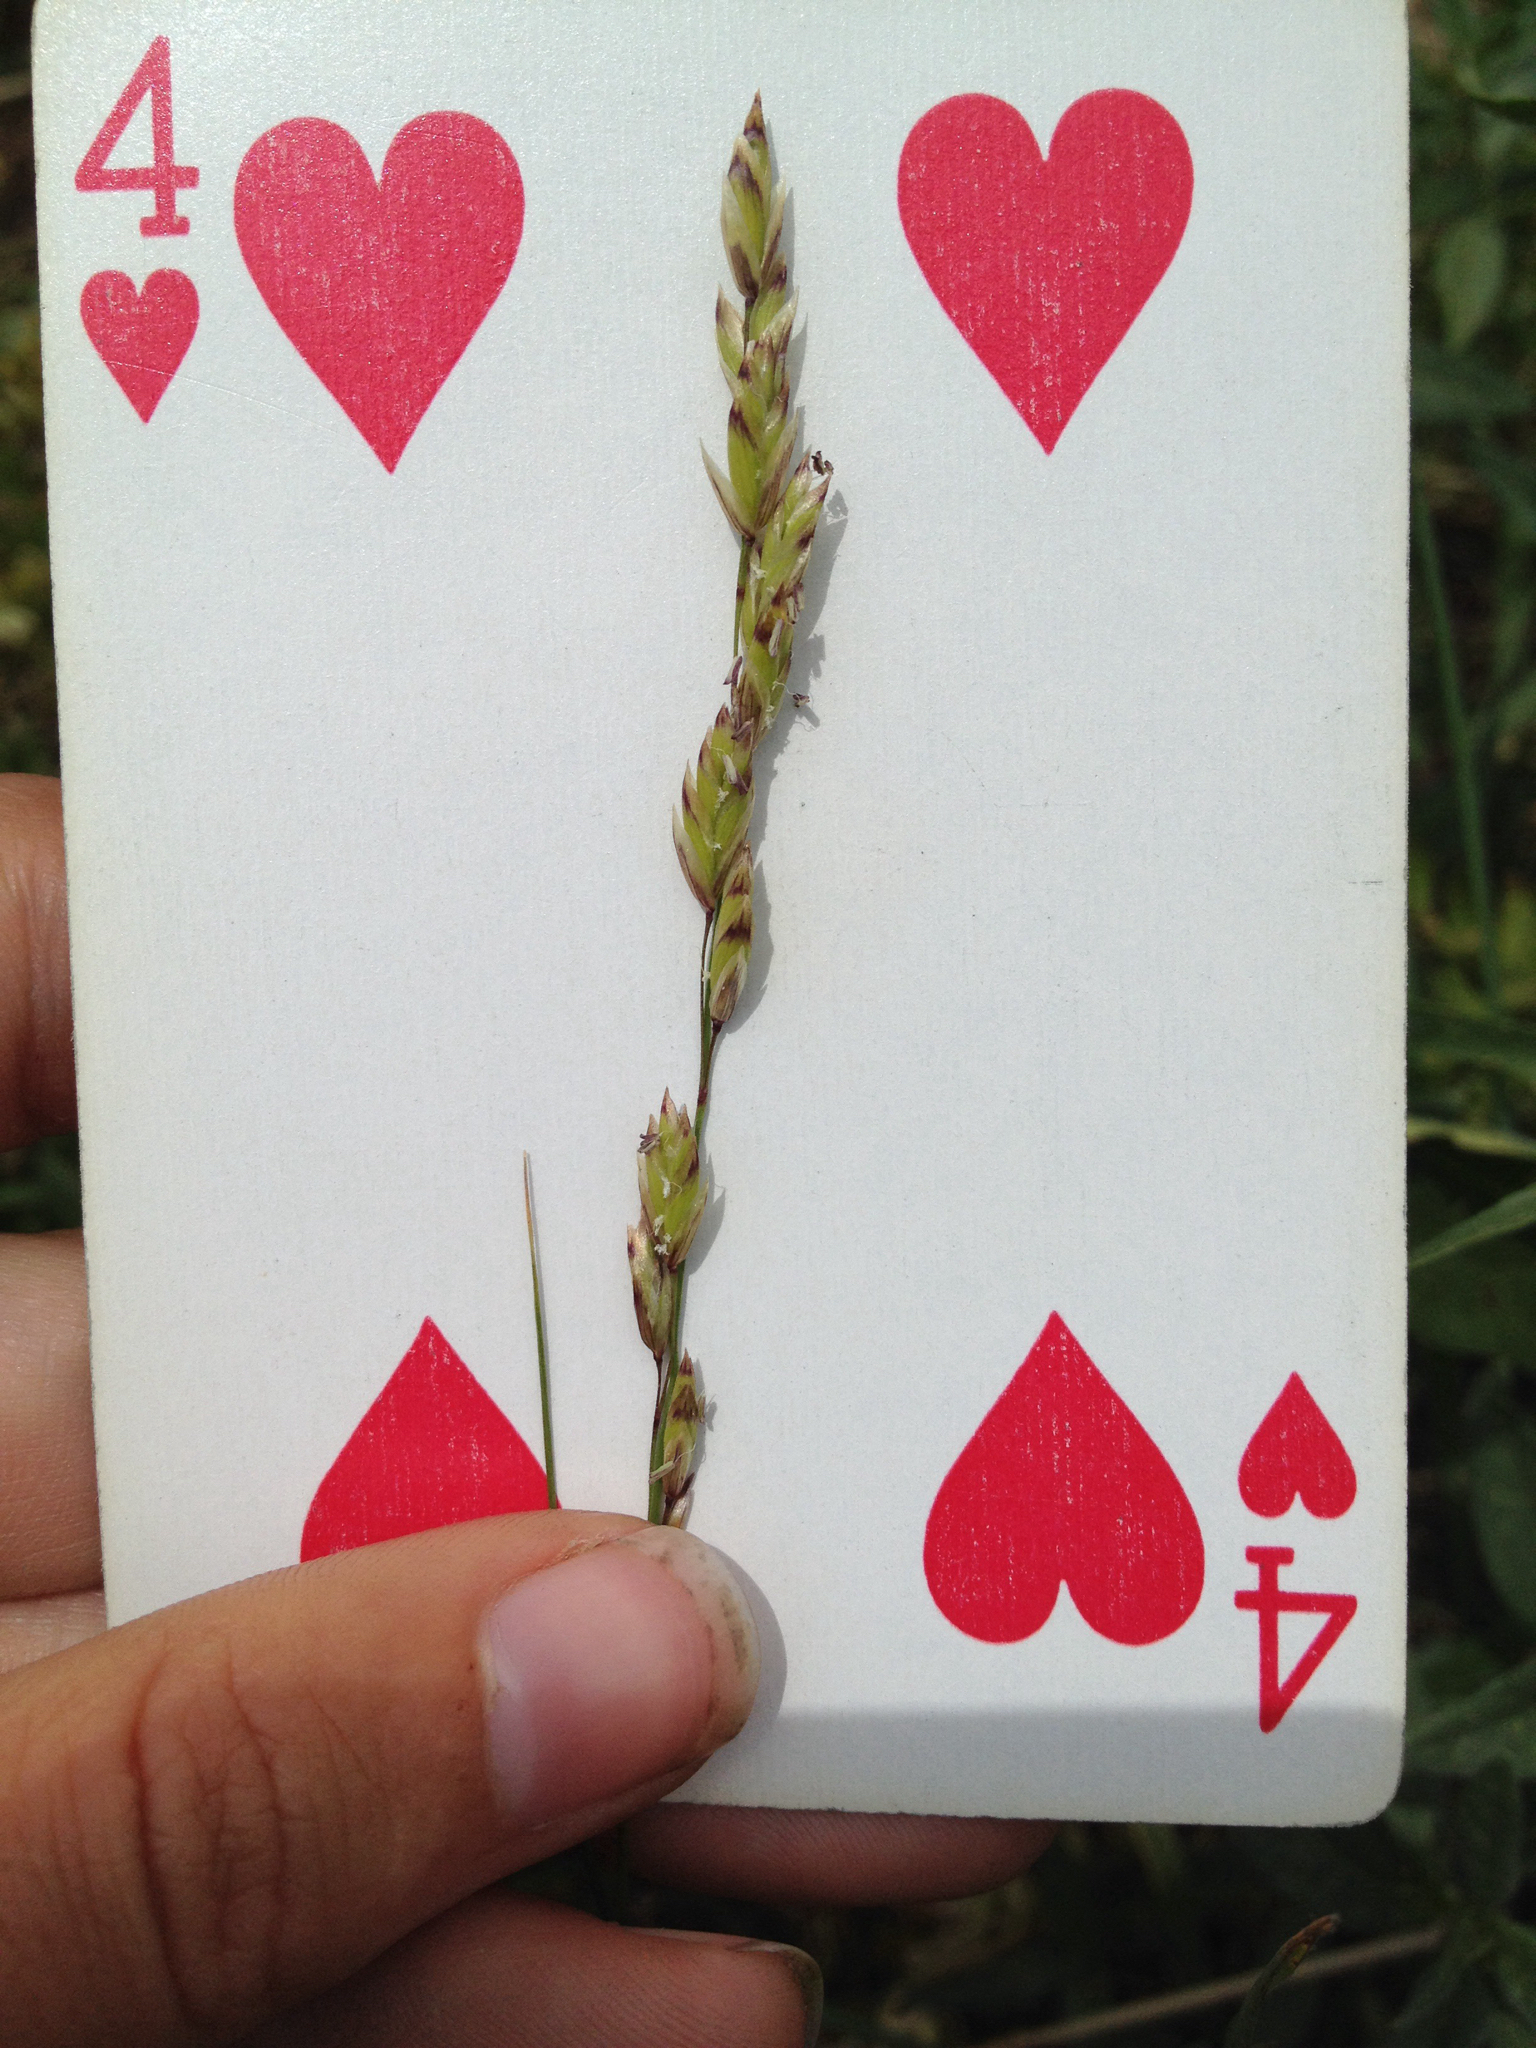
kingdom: Plantae
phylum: Tracheophyta
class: Liliopsida
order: Poales
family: Poaceae
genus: Melica
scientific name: Melica spectabilis
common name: Purple oniongrass
